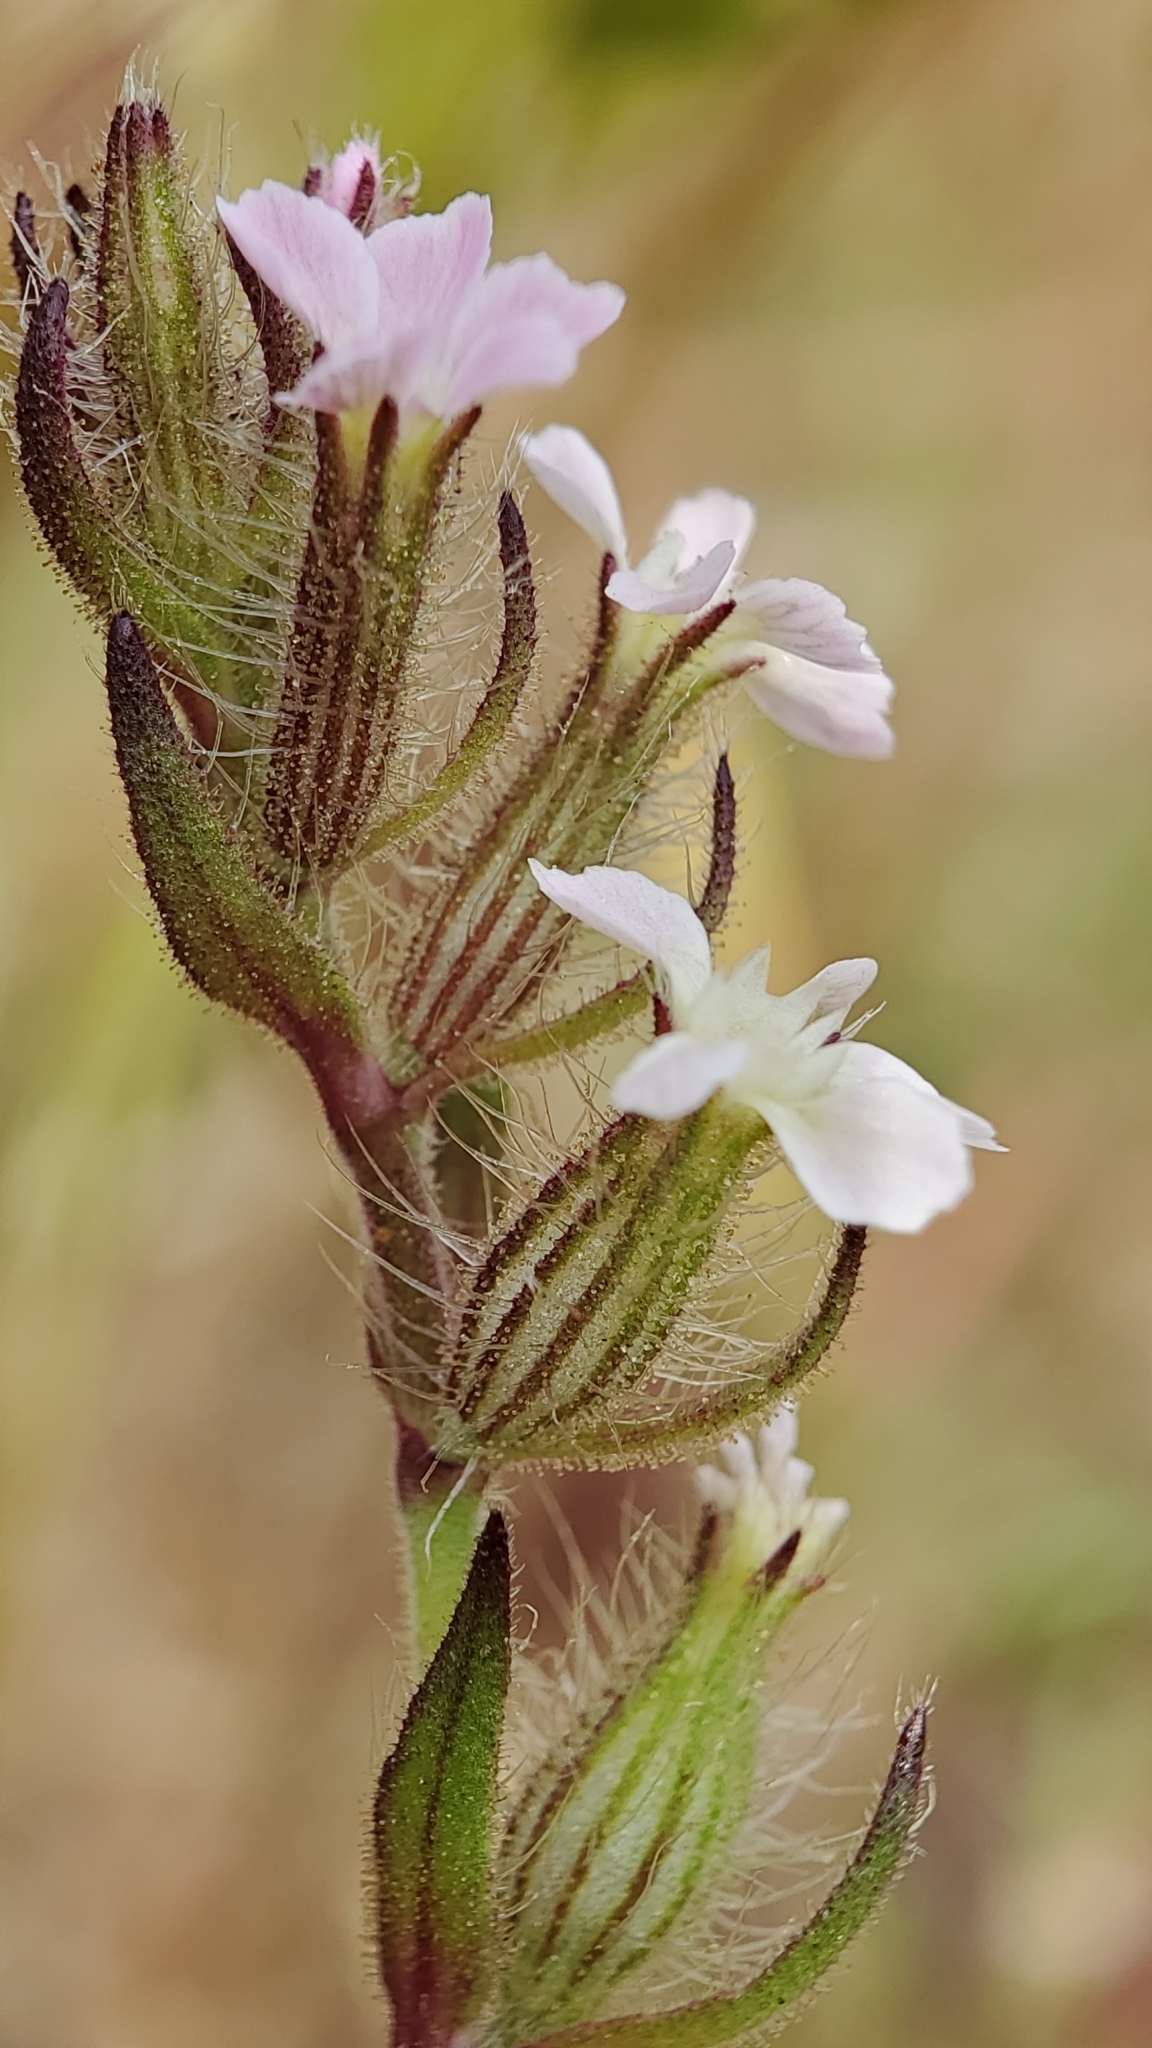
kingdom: Plantae
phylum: Tracheophyta
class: Magnoliopsida
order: Caryophyllales
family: Caryophyllaceae
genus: Silene
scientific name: Silene gallica
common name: Small-flowered catchfly
